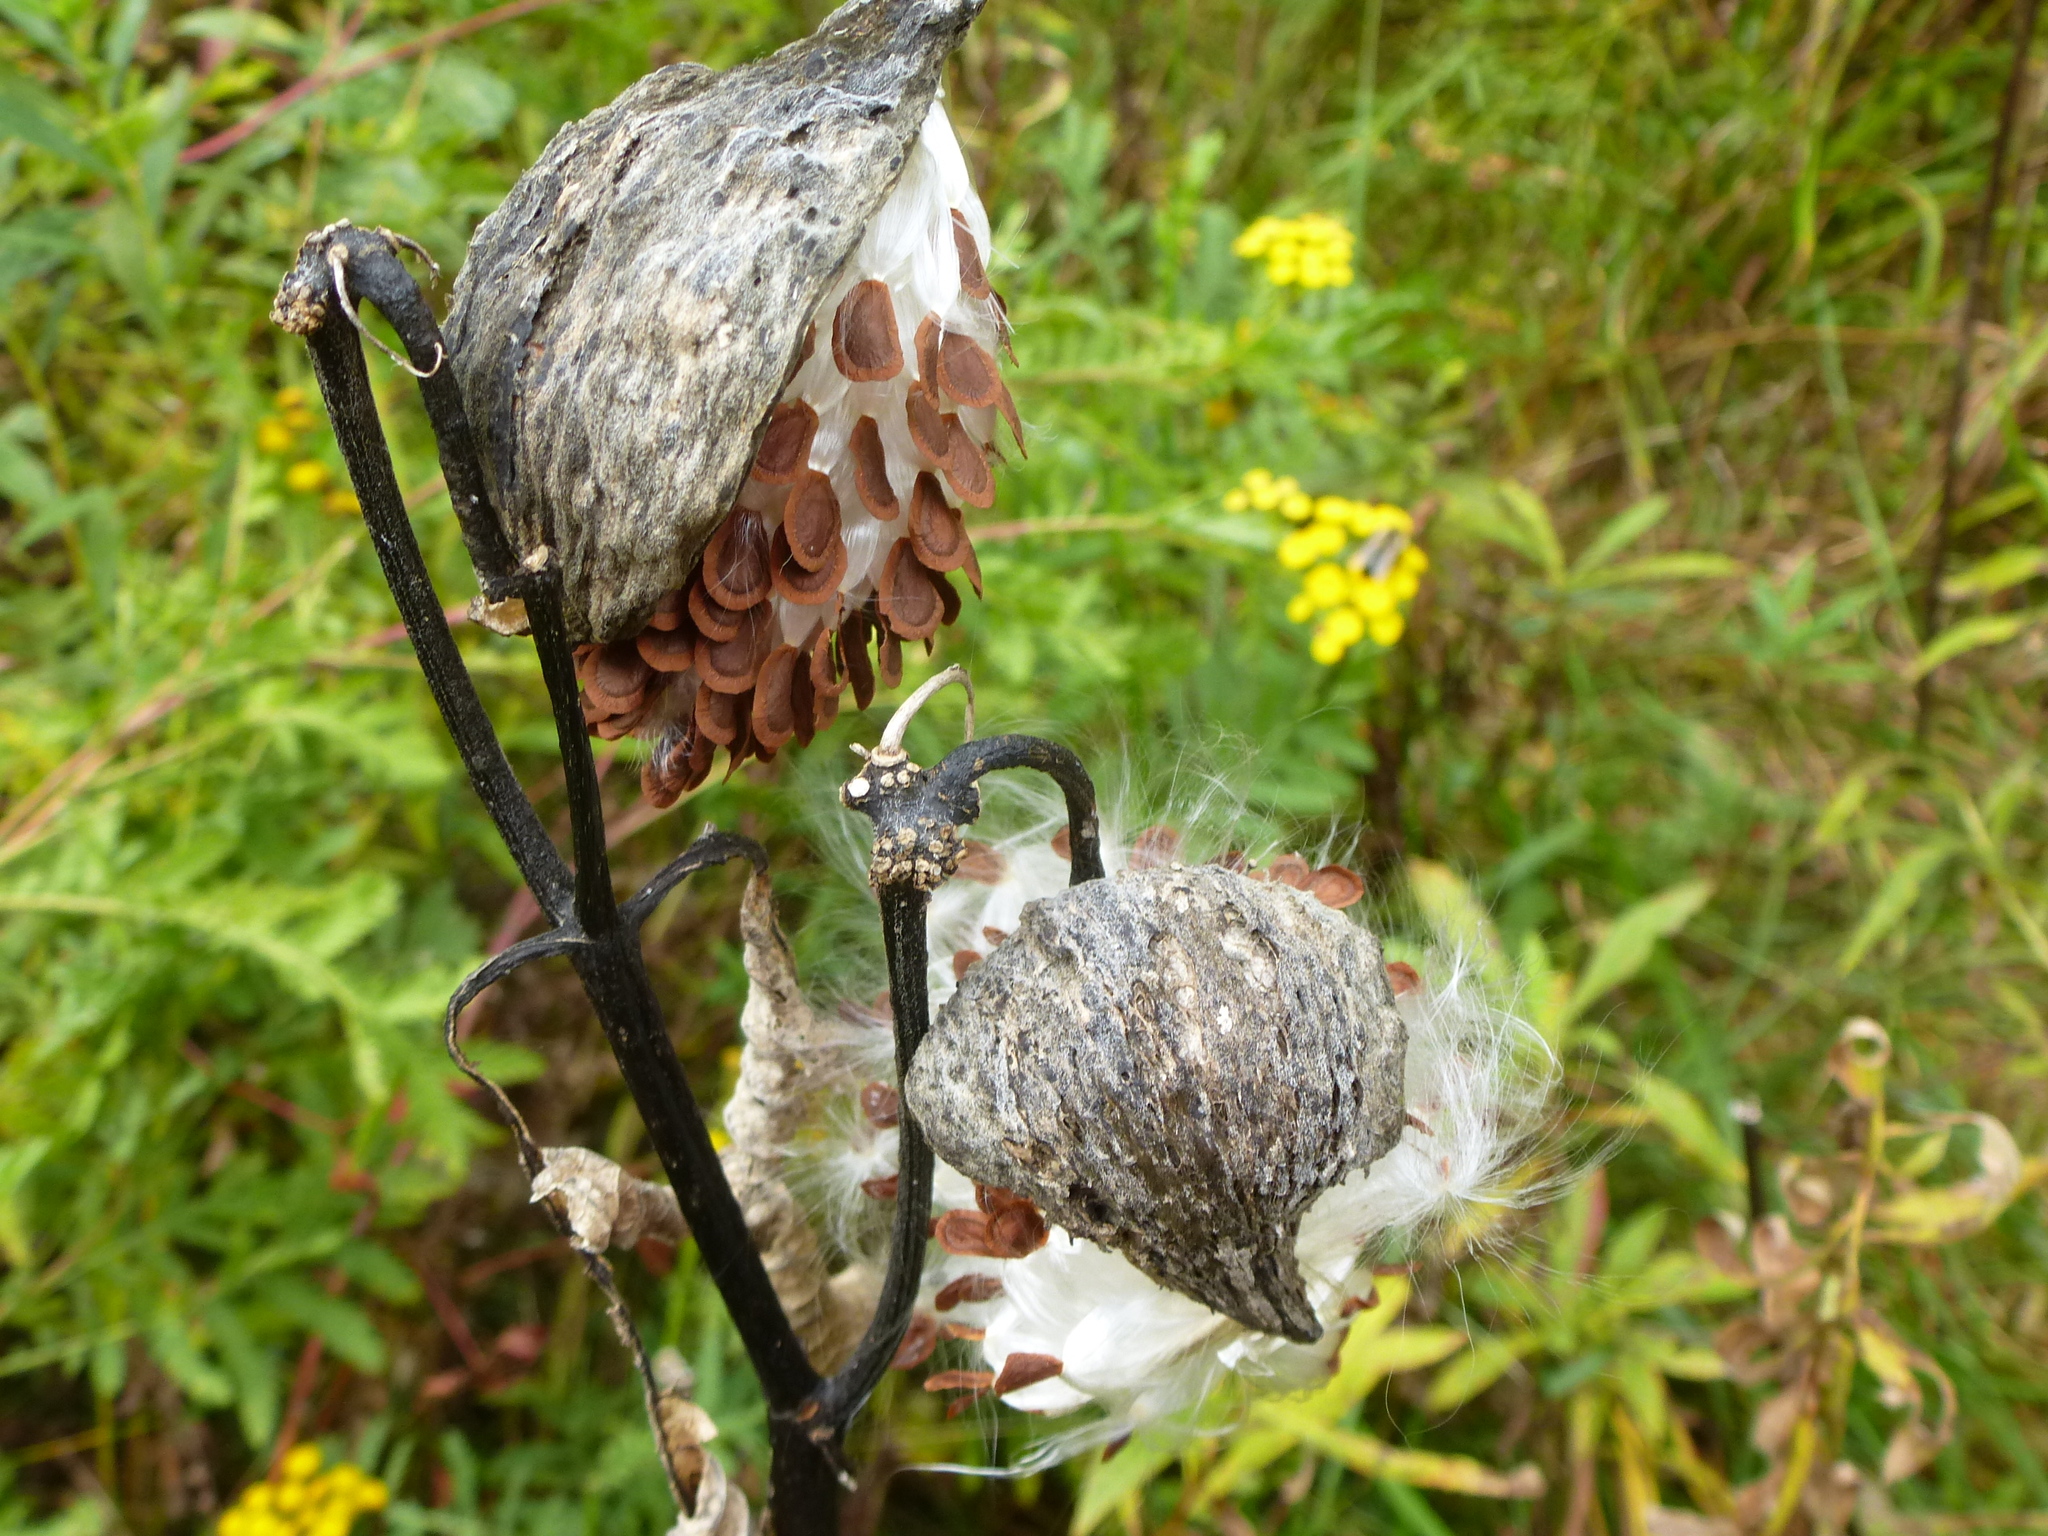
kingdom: Plantae
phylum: Tracheophyta
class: Magnoliopsida
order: Gentianales
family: Apocynaceae
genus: Asclepias
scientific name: Asclepias syriaca
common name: Common milkweed
